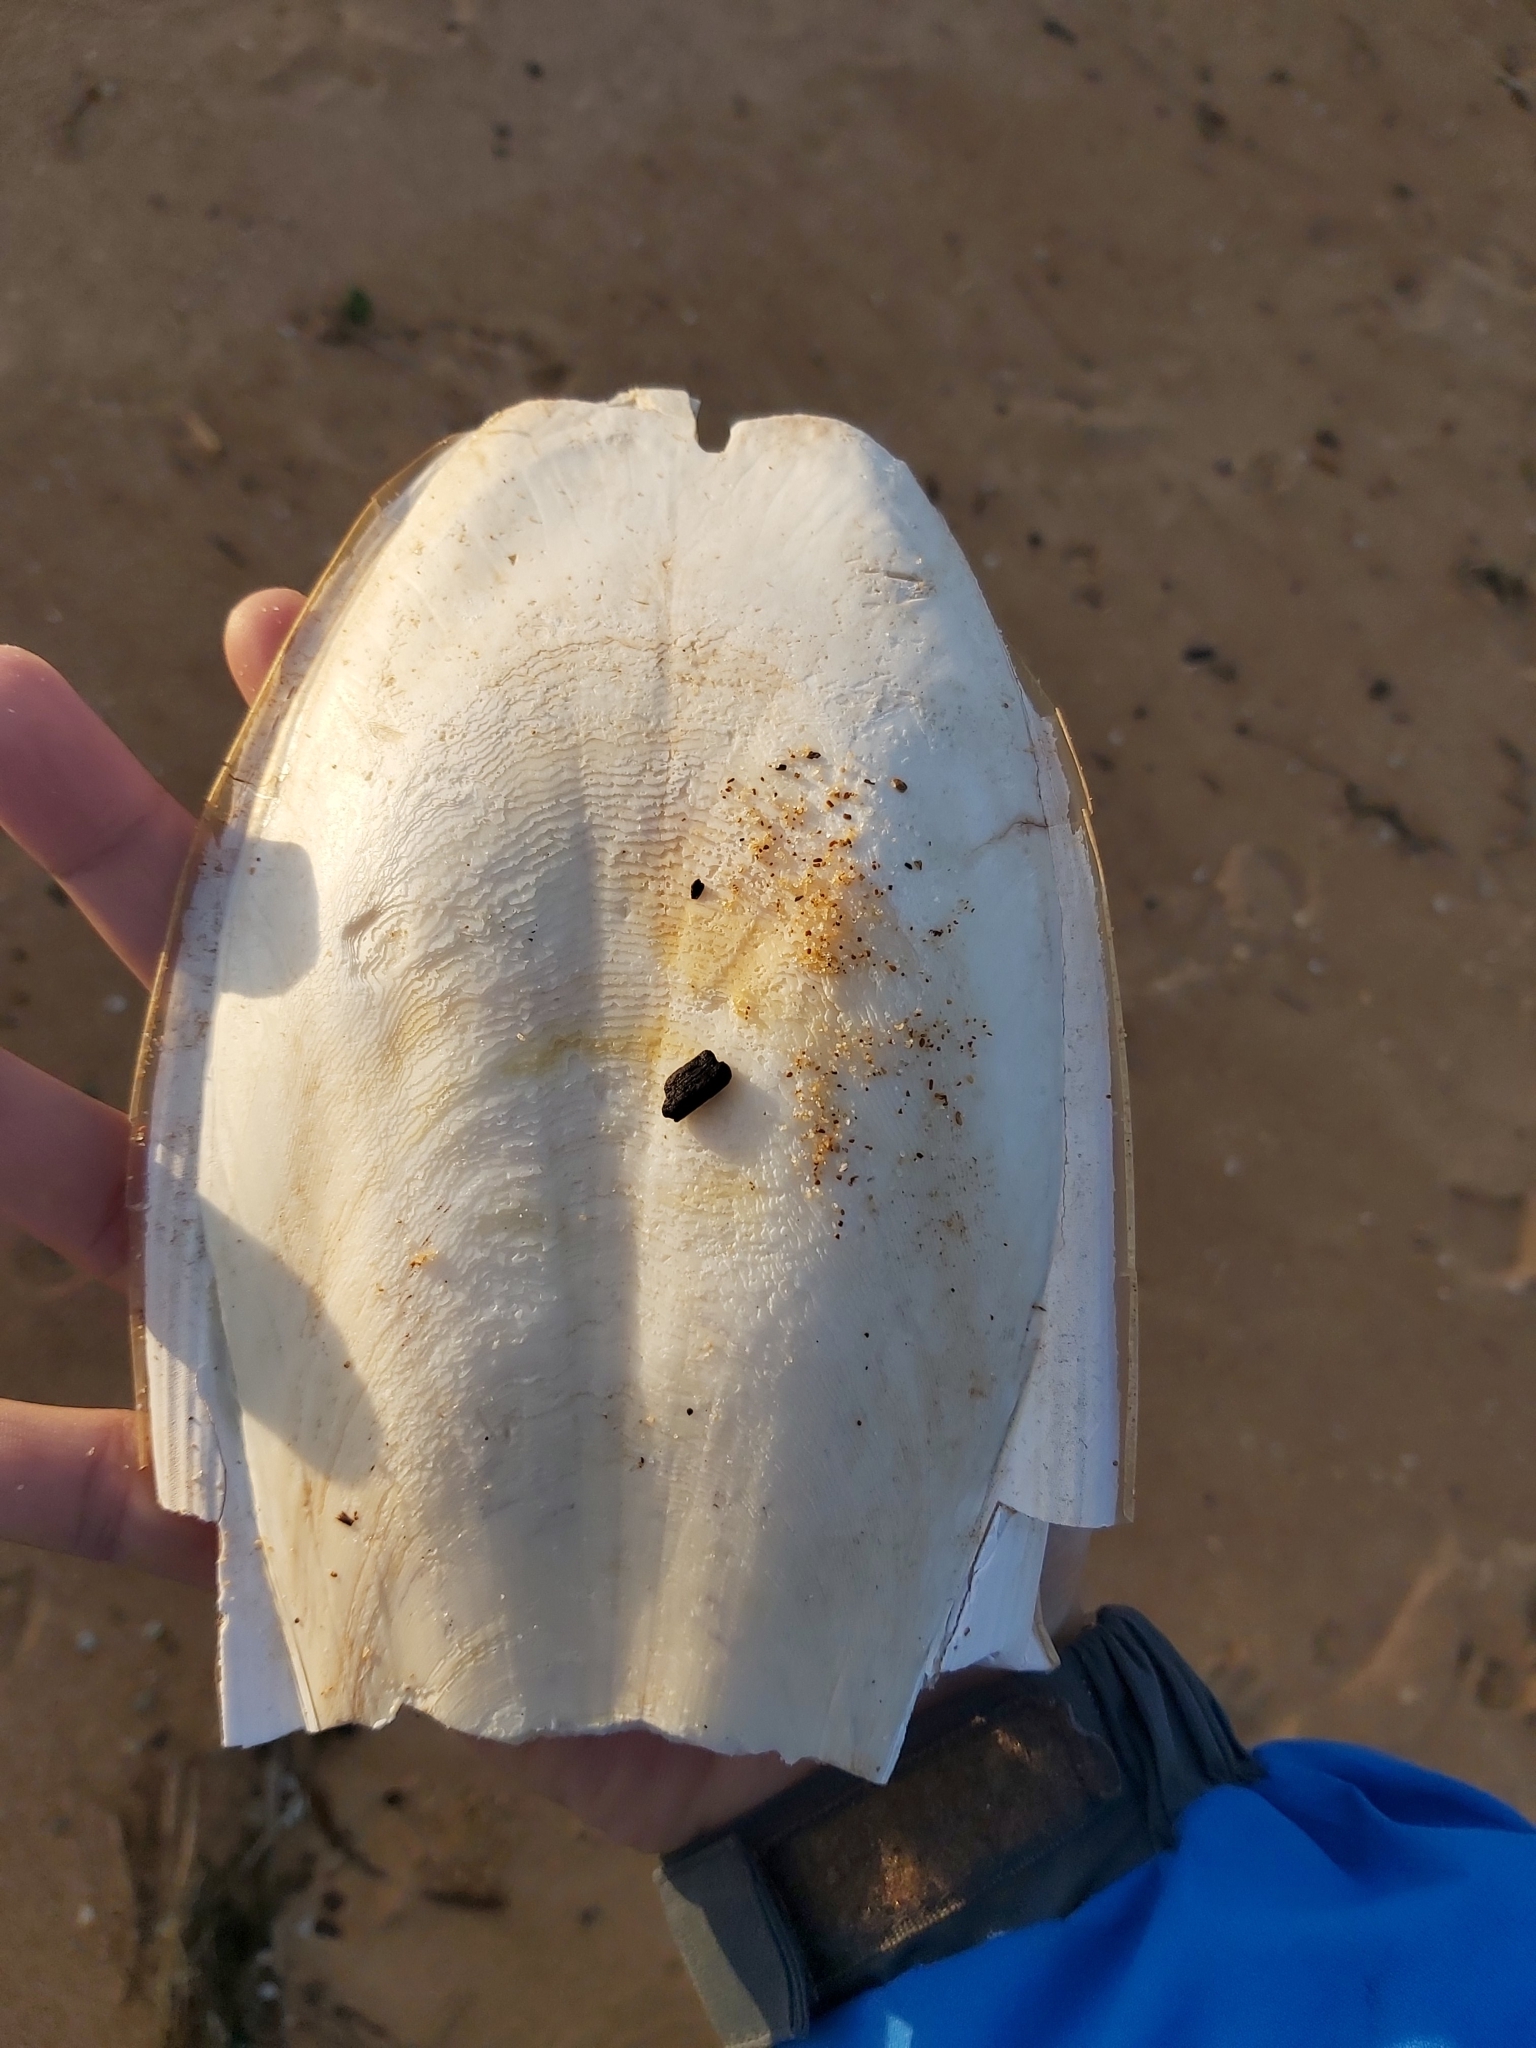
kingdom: Animalia
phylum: Mollusca
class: Cephalopoda
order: Sepiida
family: Sepiidae
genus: Ascarosepion
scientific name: Ascarosepion apama
